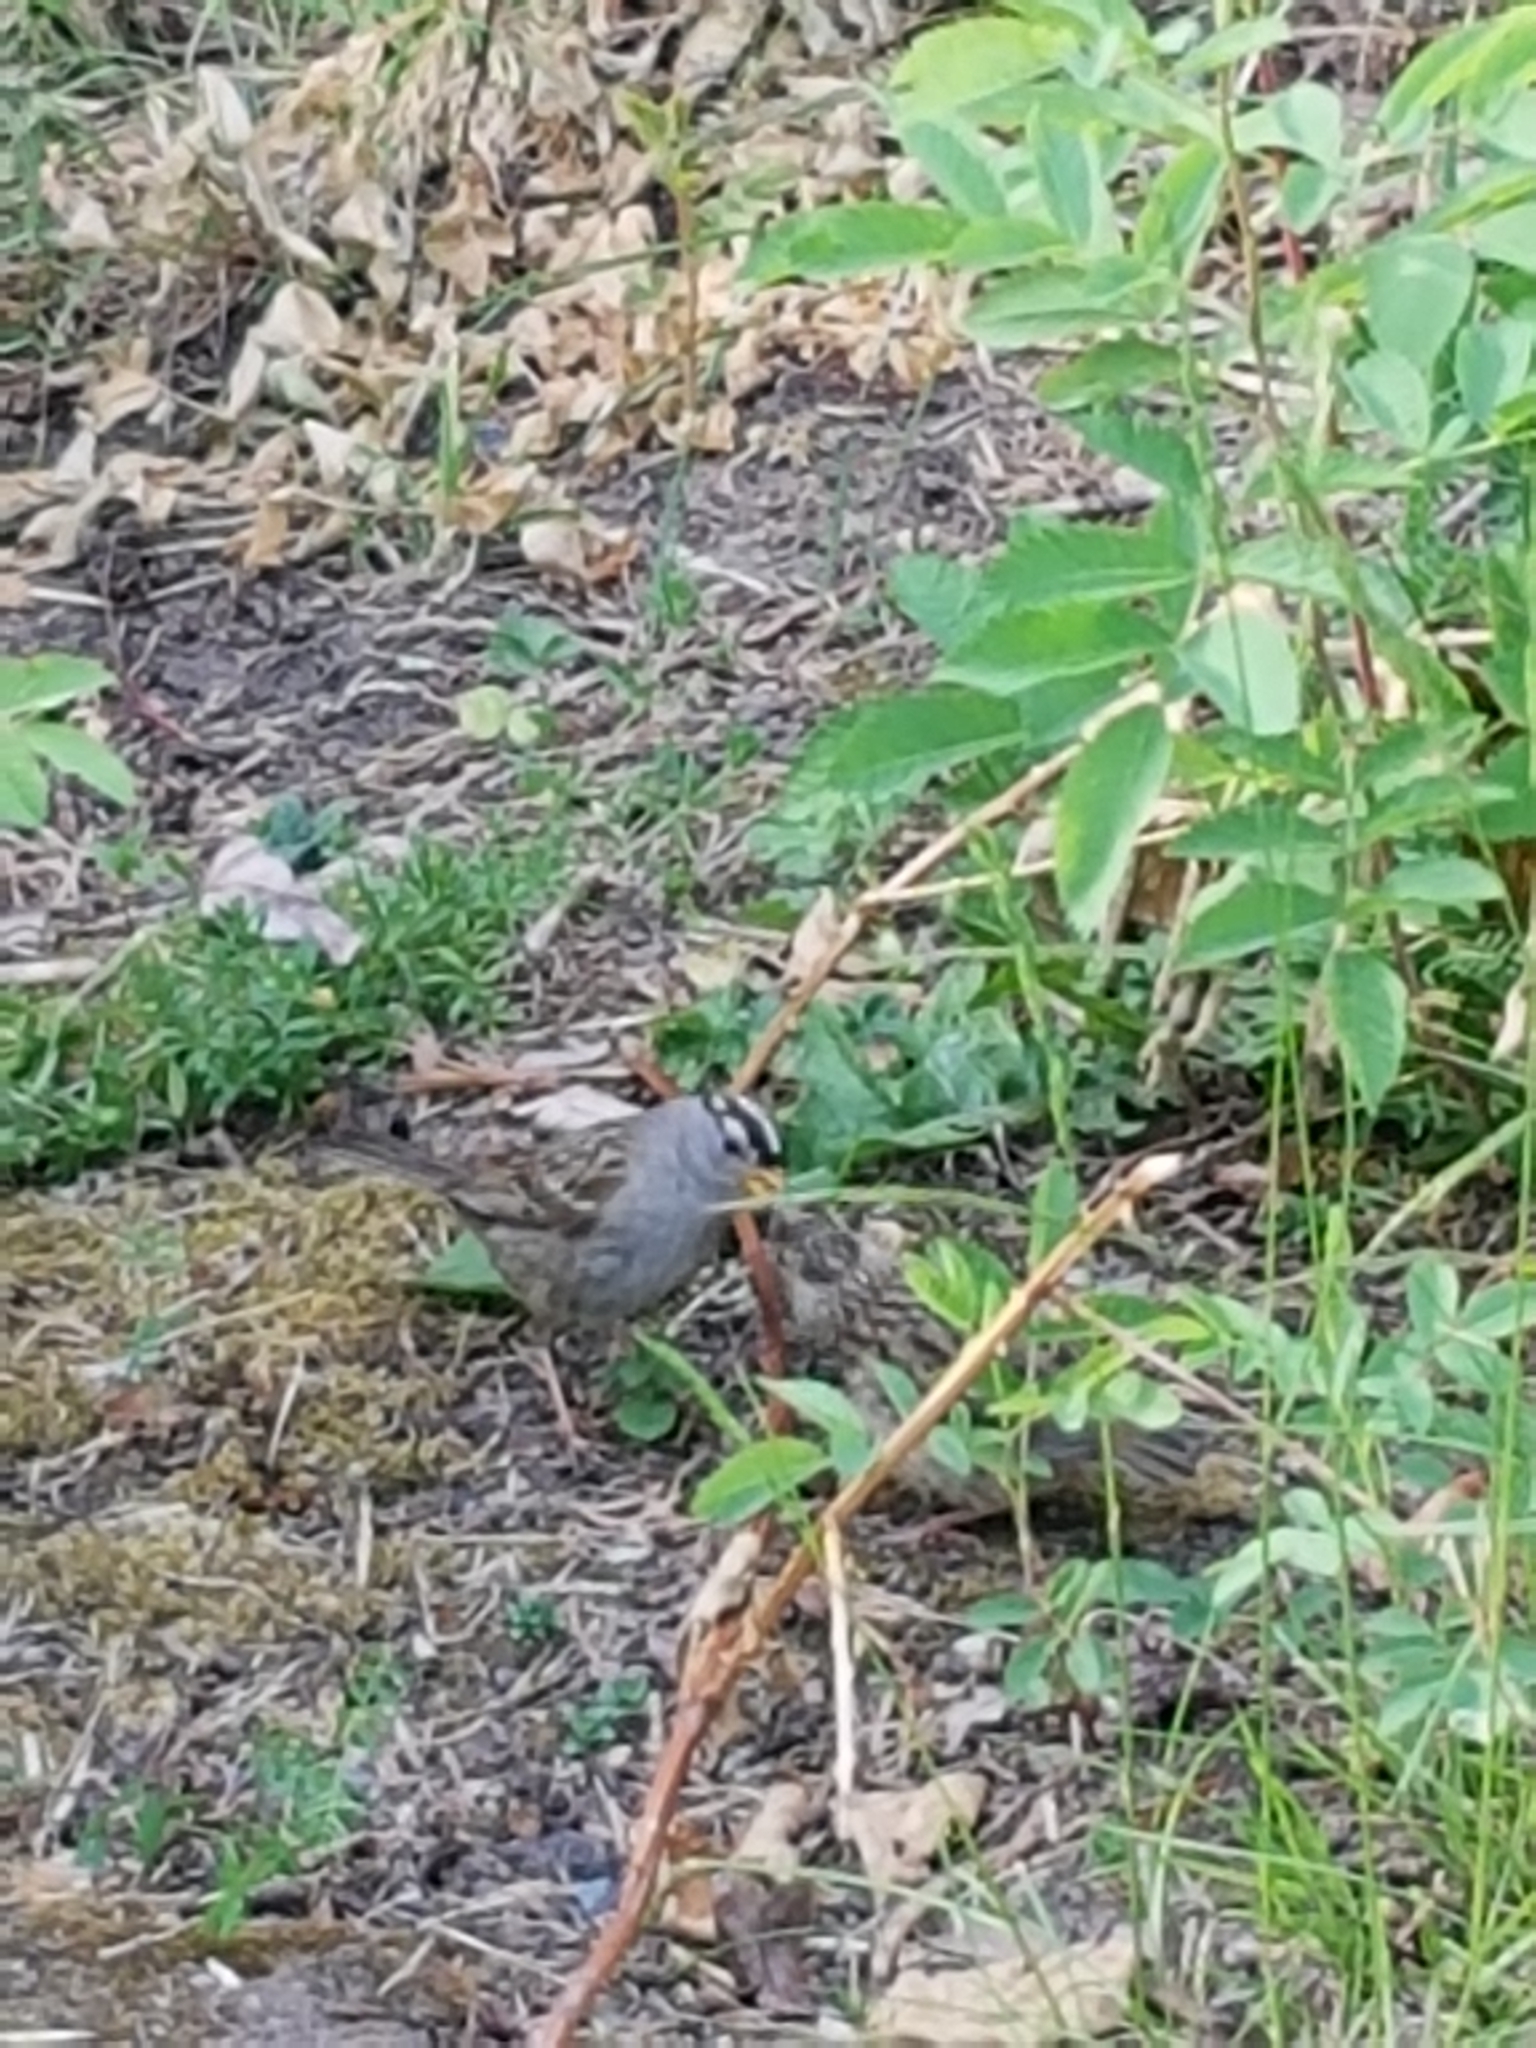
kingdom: Animalia
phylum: Chordata
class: Aves
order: Passeriformes
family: Passerellidae
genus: Zonotrichia
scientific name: Zonotrichia leucophrys
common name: White-crowned sparrow
